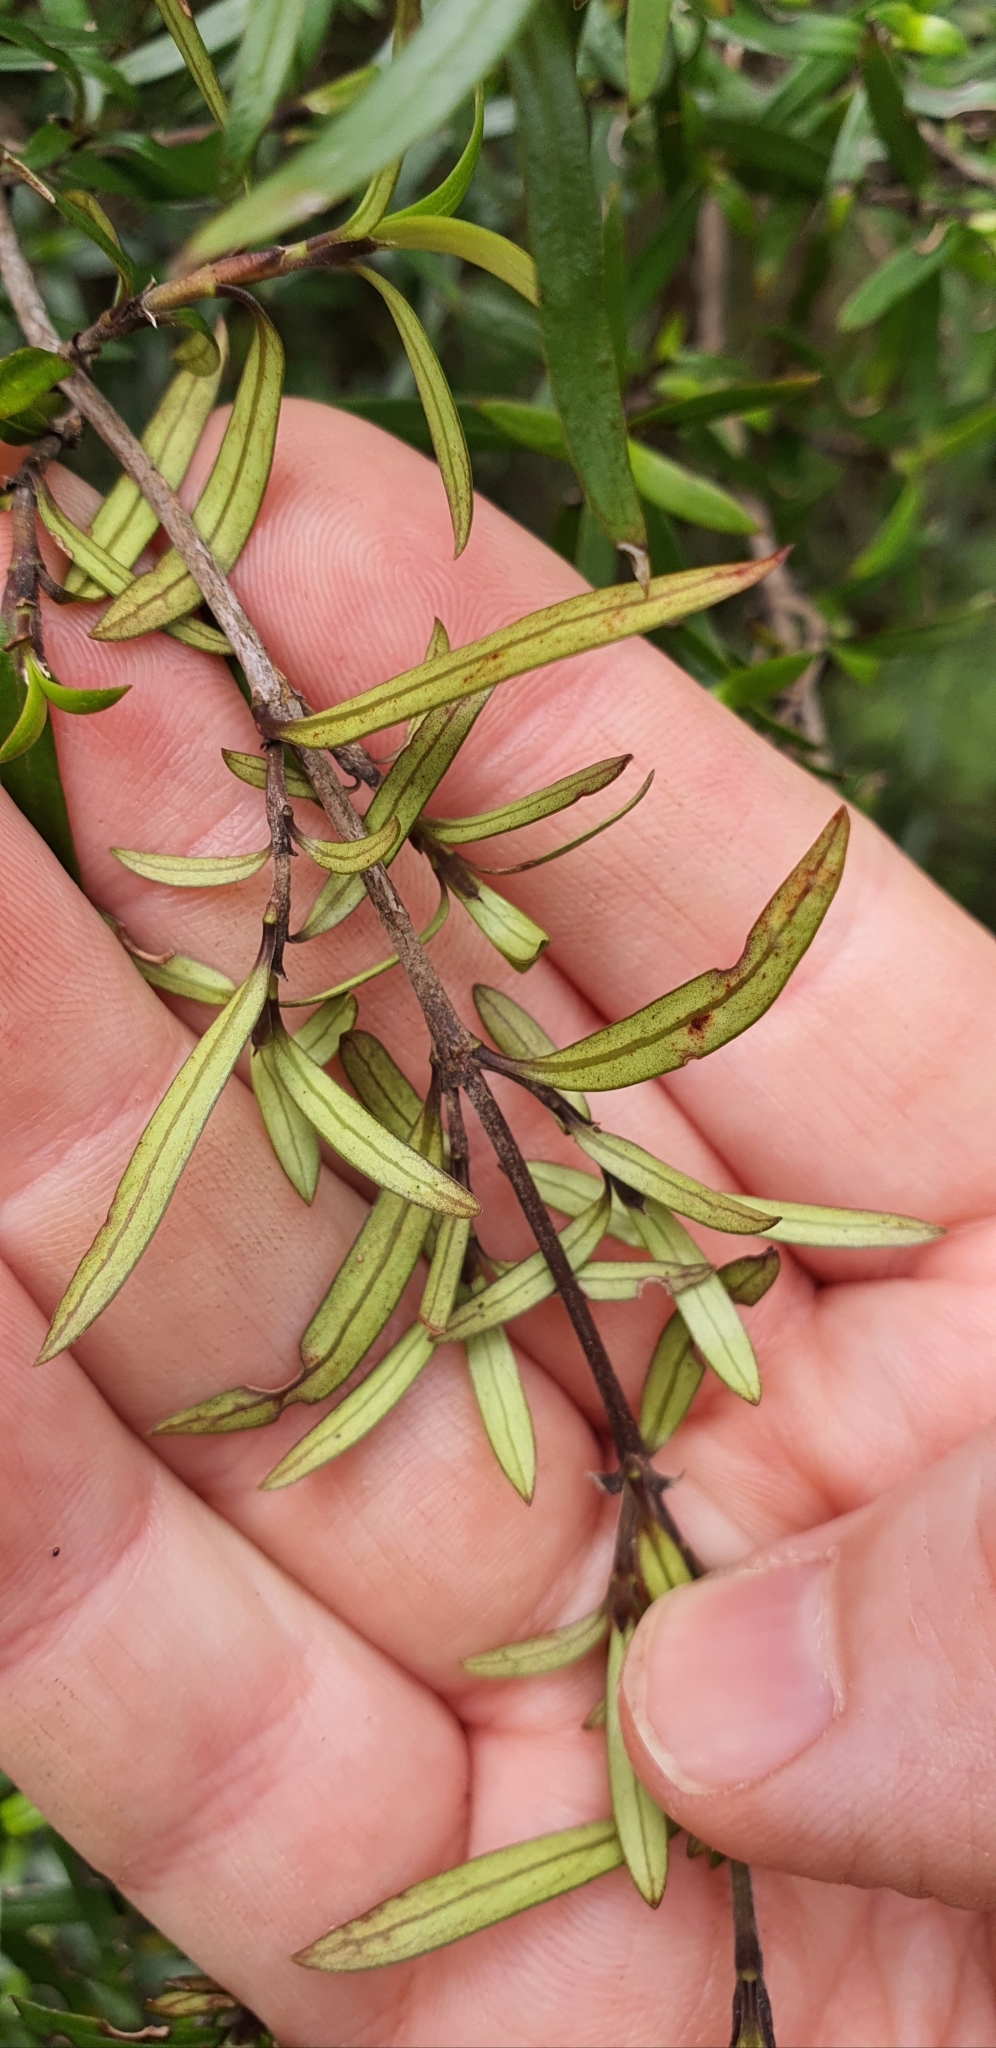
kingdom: Plantae
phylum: Tracheophyta
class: Magnoliopsida
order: Gentianales
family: Rubiaceae
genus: Coprosma
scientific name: Coprosma linariifolia
